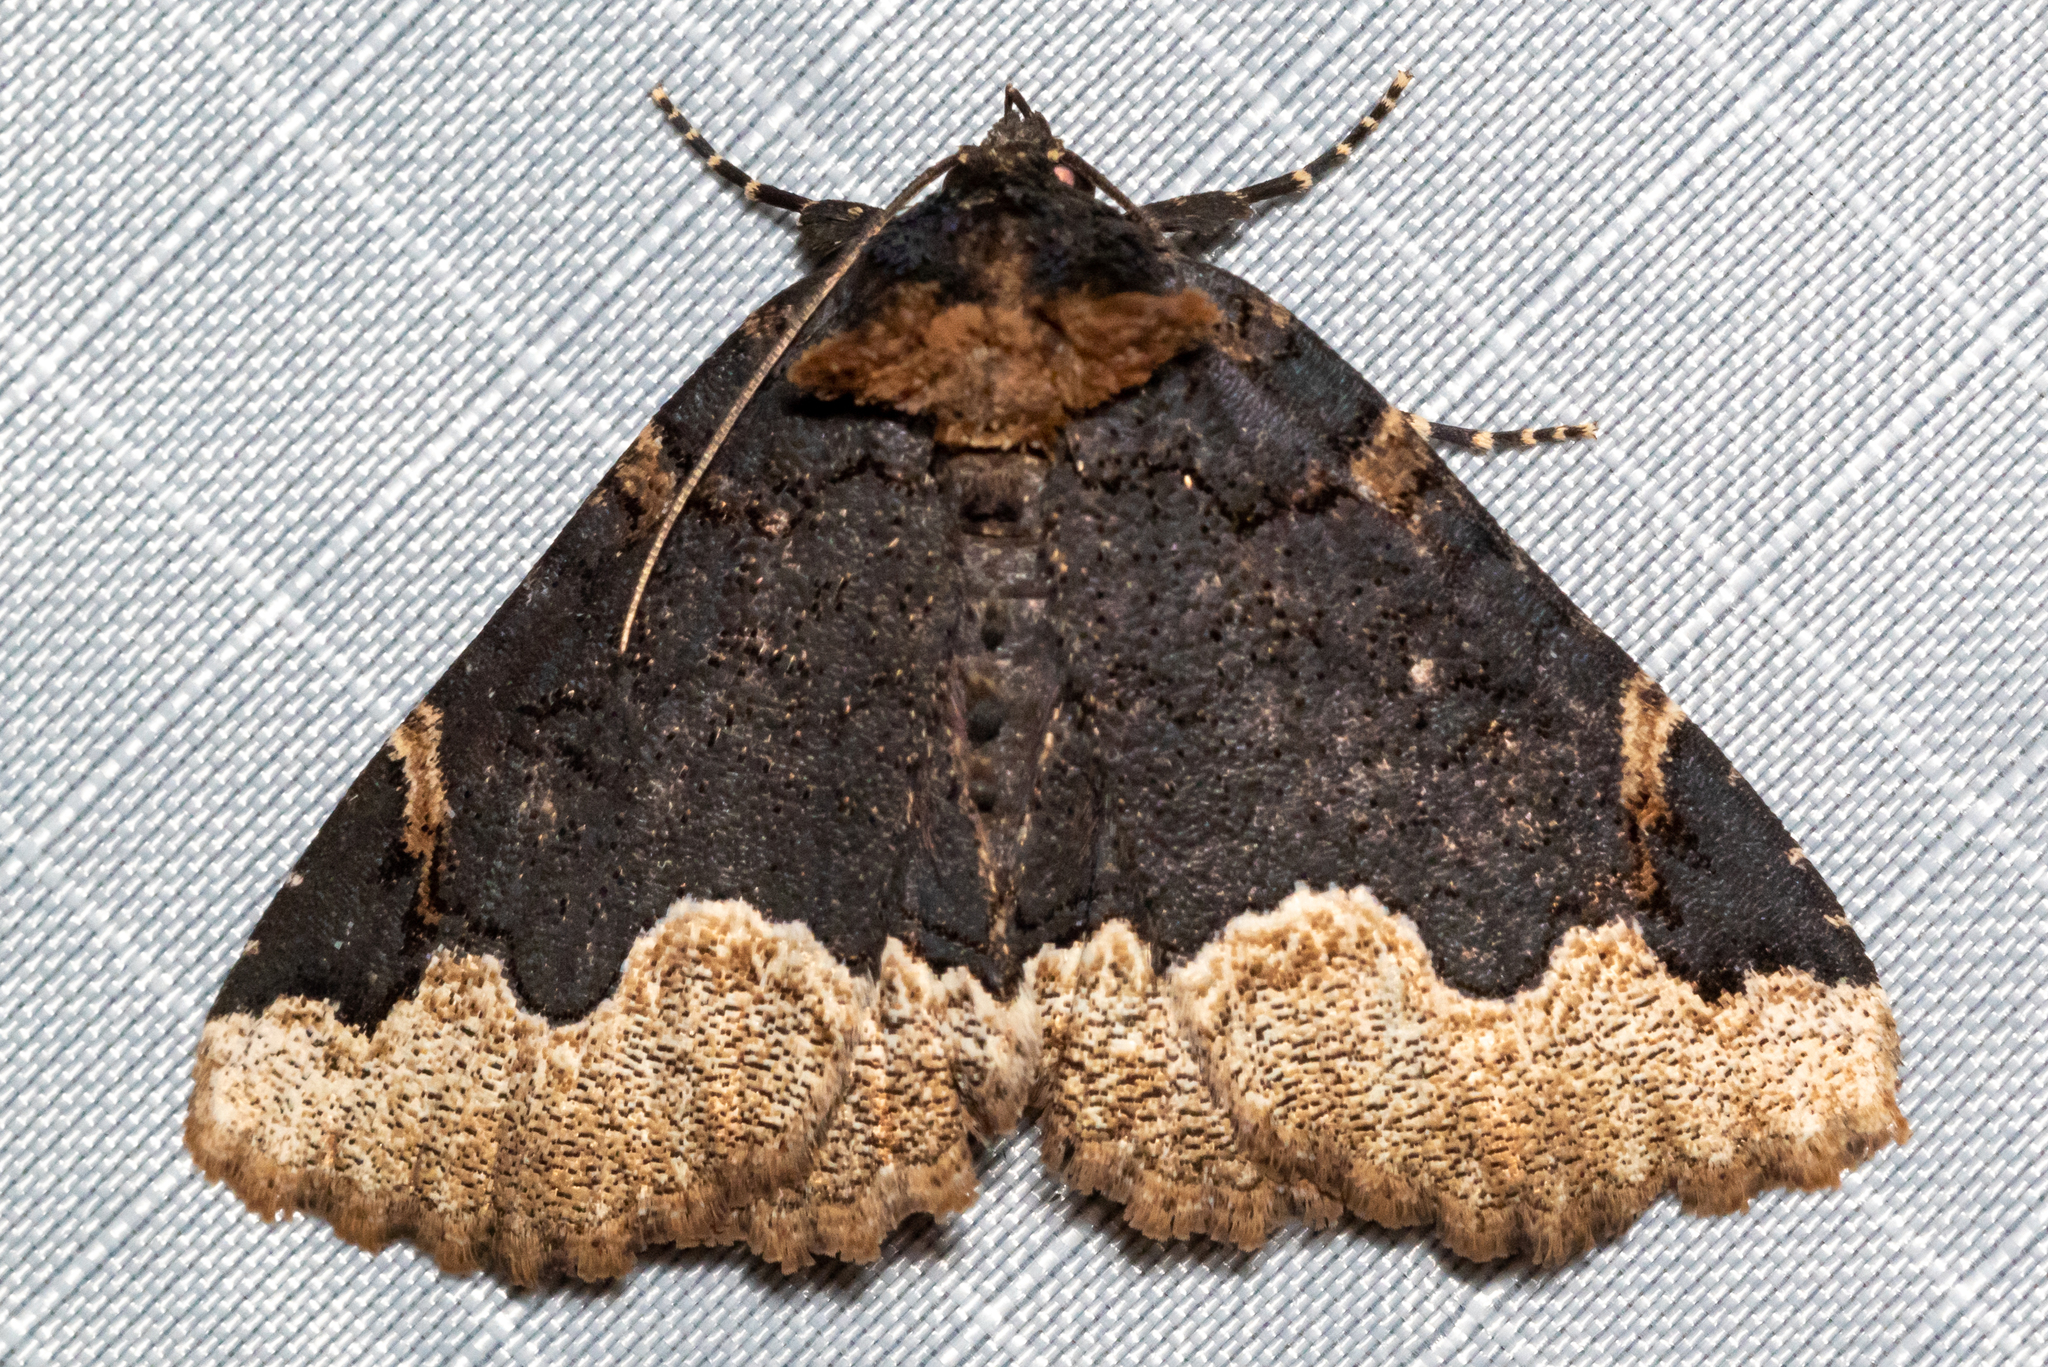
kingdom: Animalia
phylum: Arthropoda
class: Insecta
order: Lepidoptera
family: Erebidae
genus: Zale
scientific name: Zale horrida
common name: Horrid zale moth
